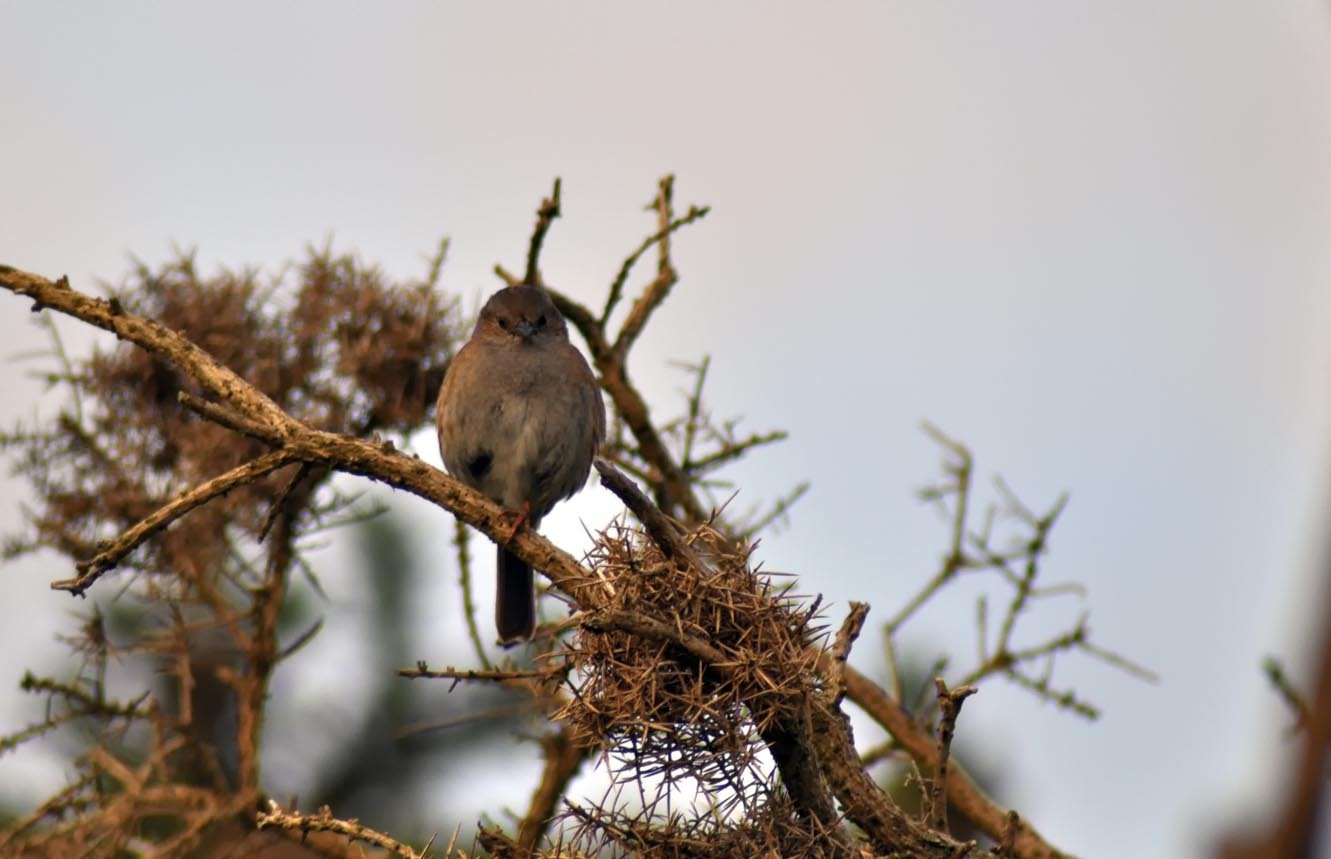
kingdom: Animalia
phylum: Chordata
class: Aves
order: Passeriformes
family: Prunellidae
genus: Prunella
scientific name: Prunella modularis
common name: Dunnock
